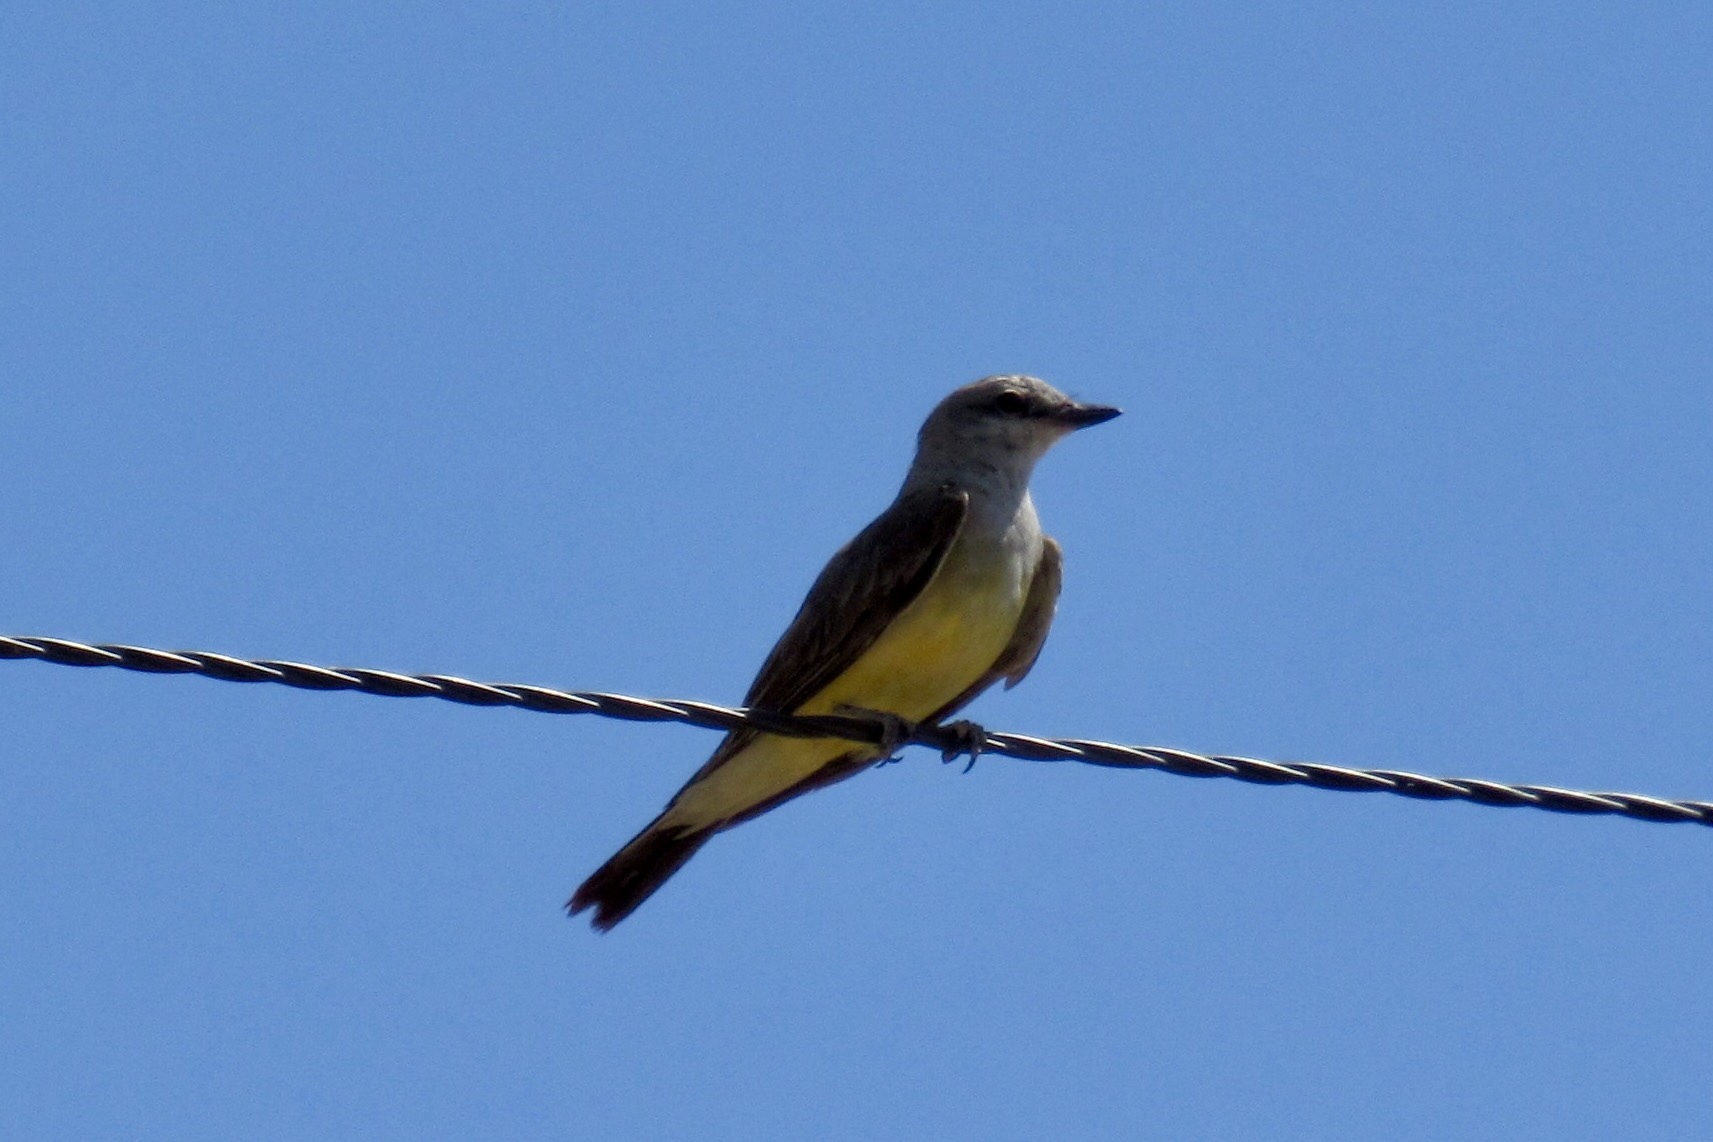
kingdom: Animalia
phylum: Chordata
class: Aves
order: Passeriformes
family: Tyrannidae
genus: Tyrannus
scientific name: Tyrannus verticalis
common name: Western kingbird
